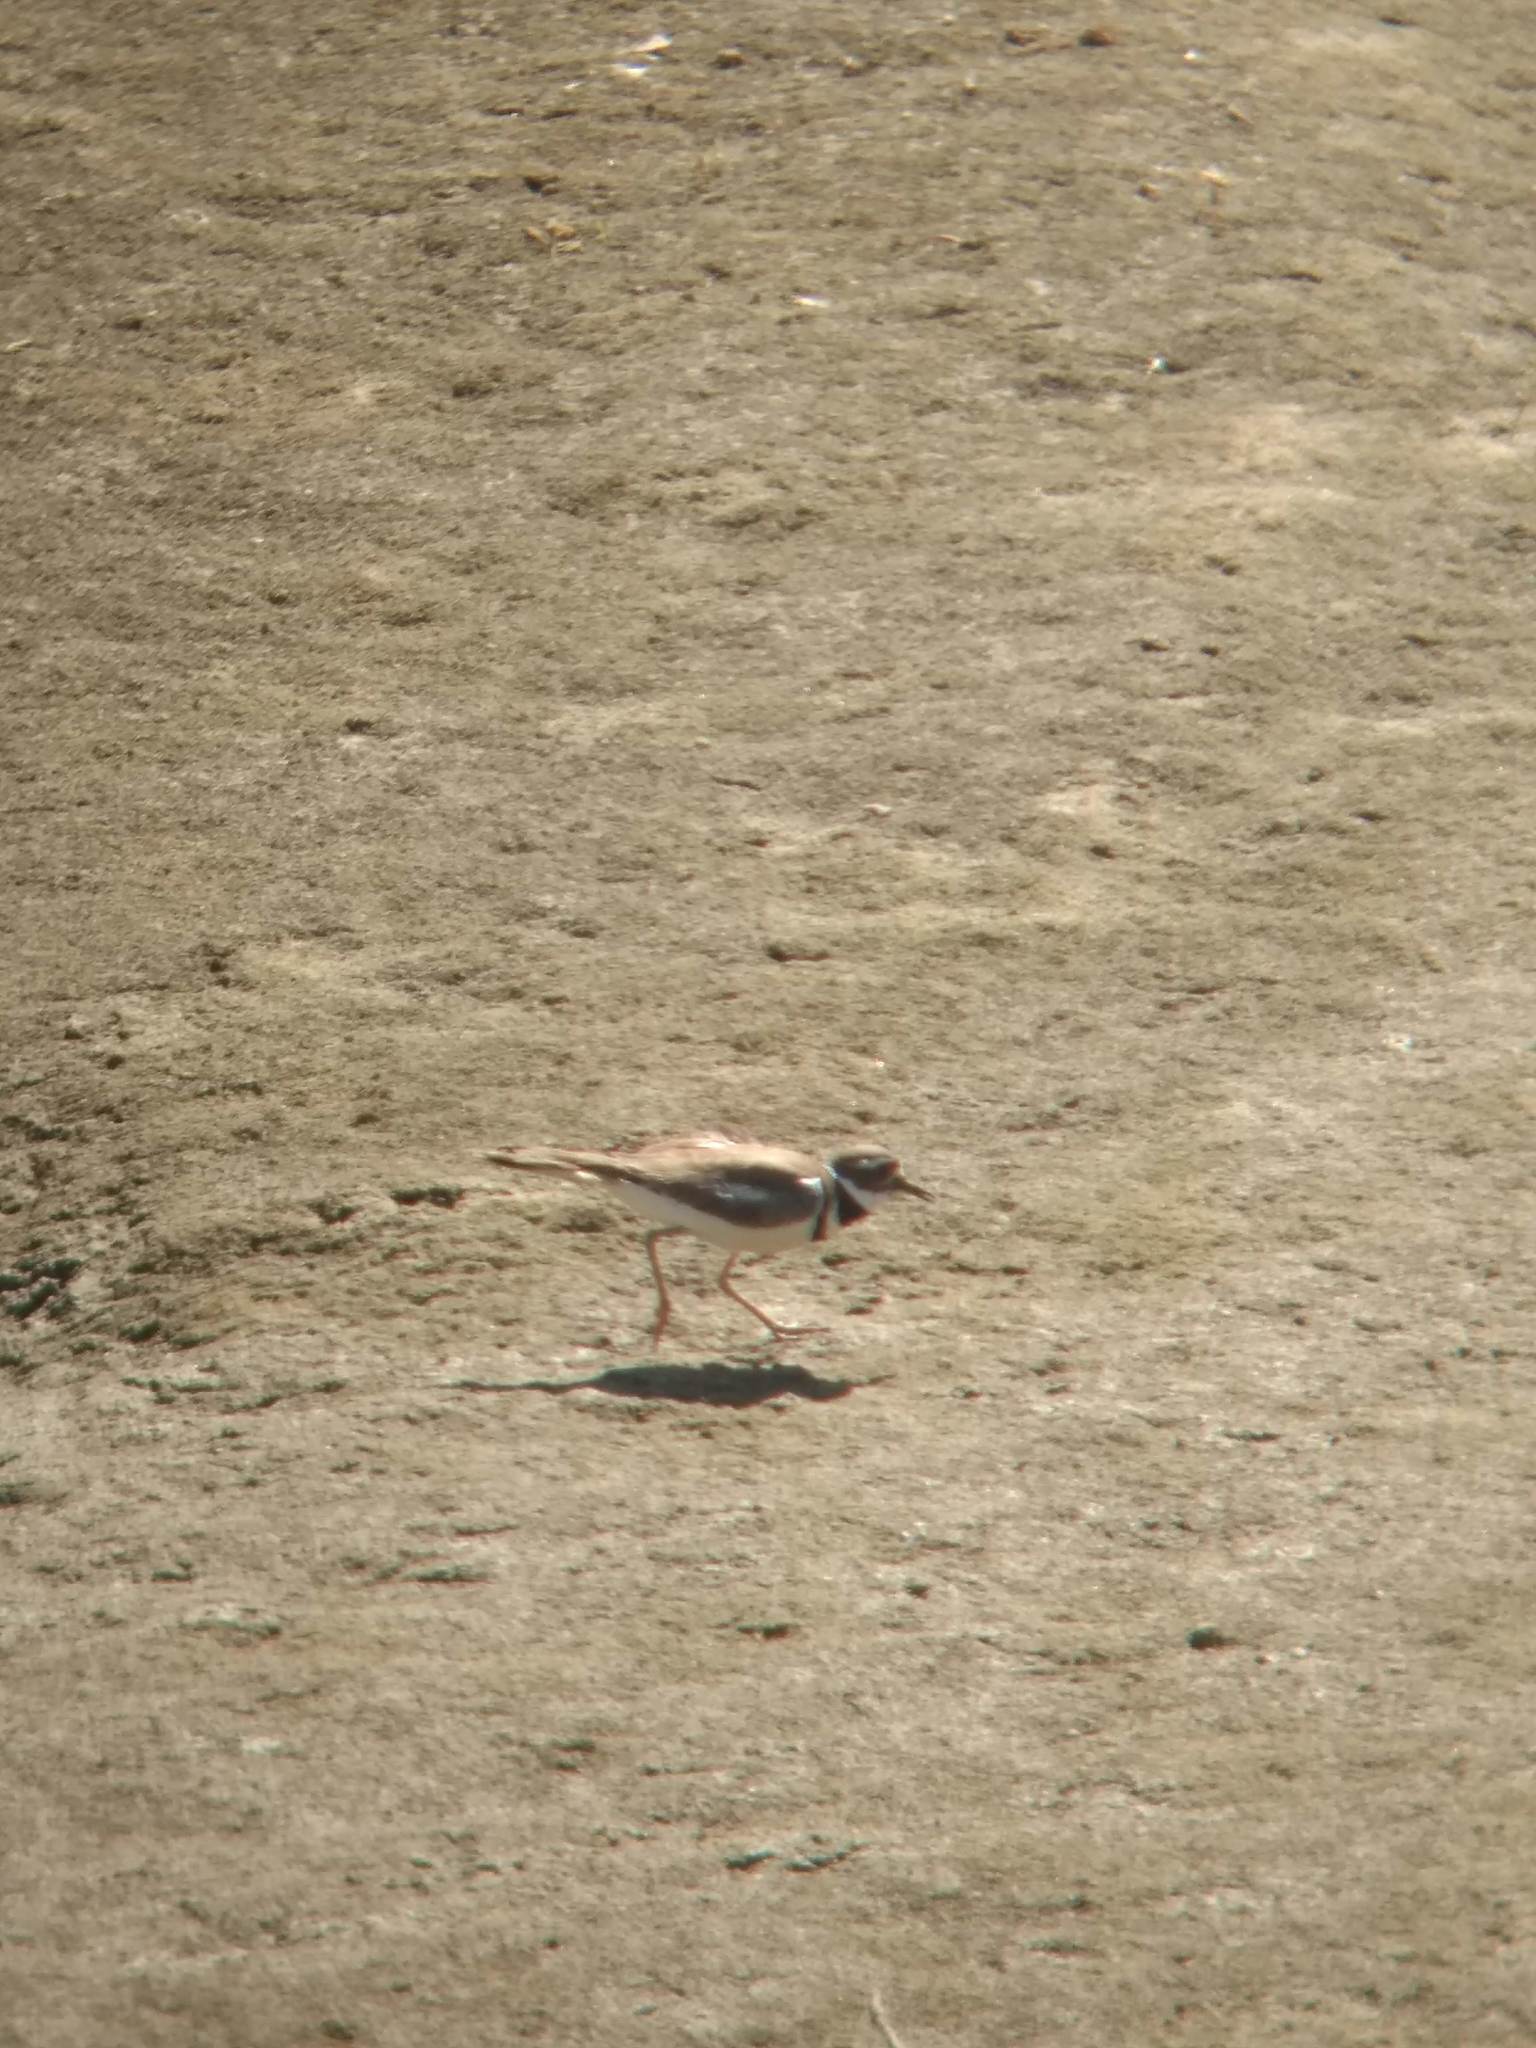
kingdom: Animalia
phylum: Chordata
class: Aves
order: Charadriiformes
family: Charadriidae
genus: Charadrius
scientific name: Charadrius vociferus
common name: Killdeer
